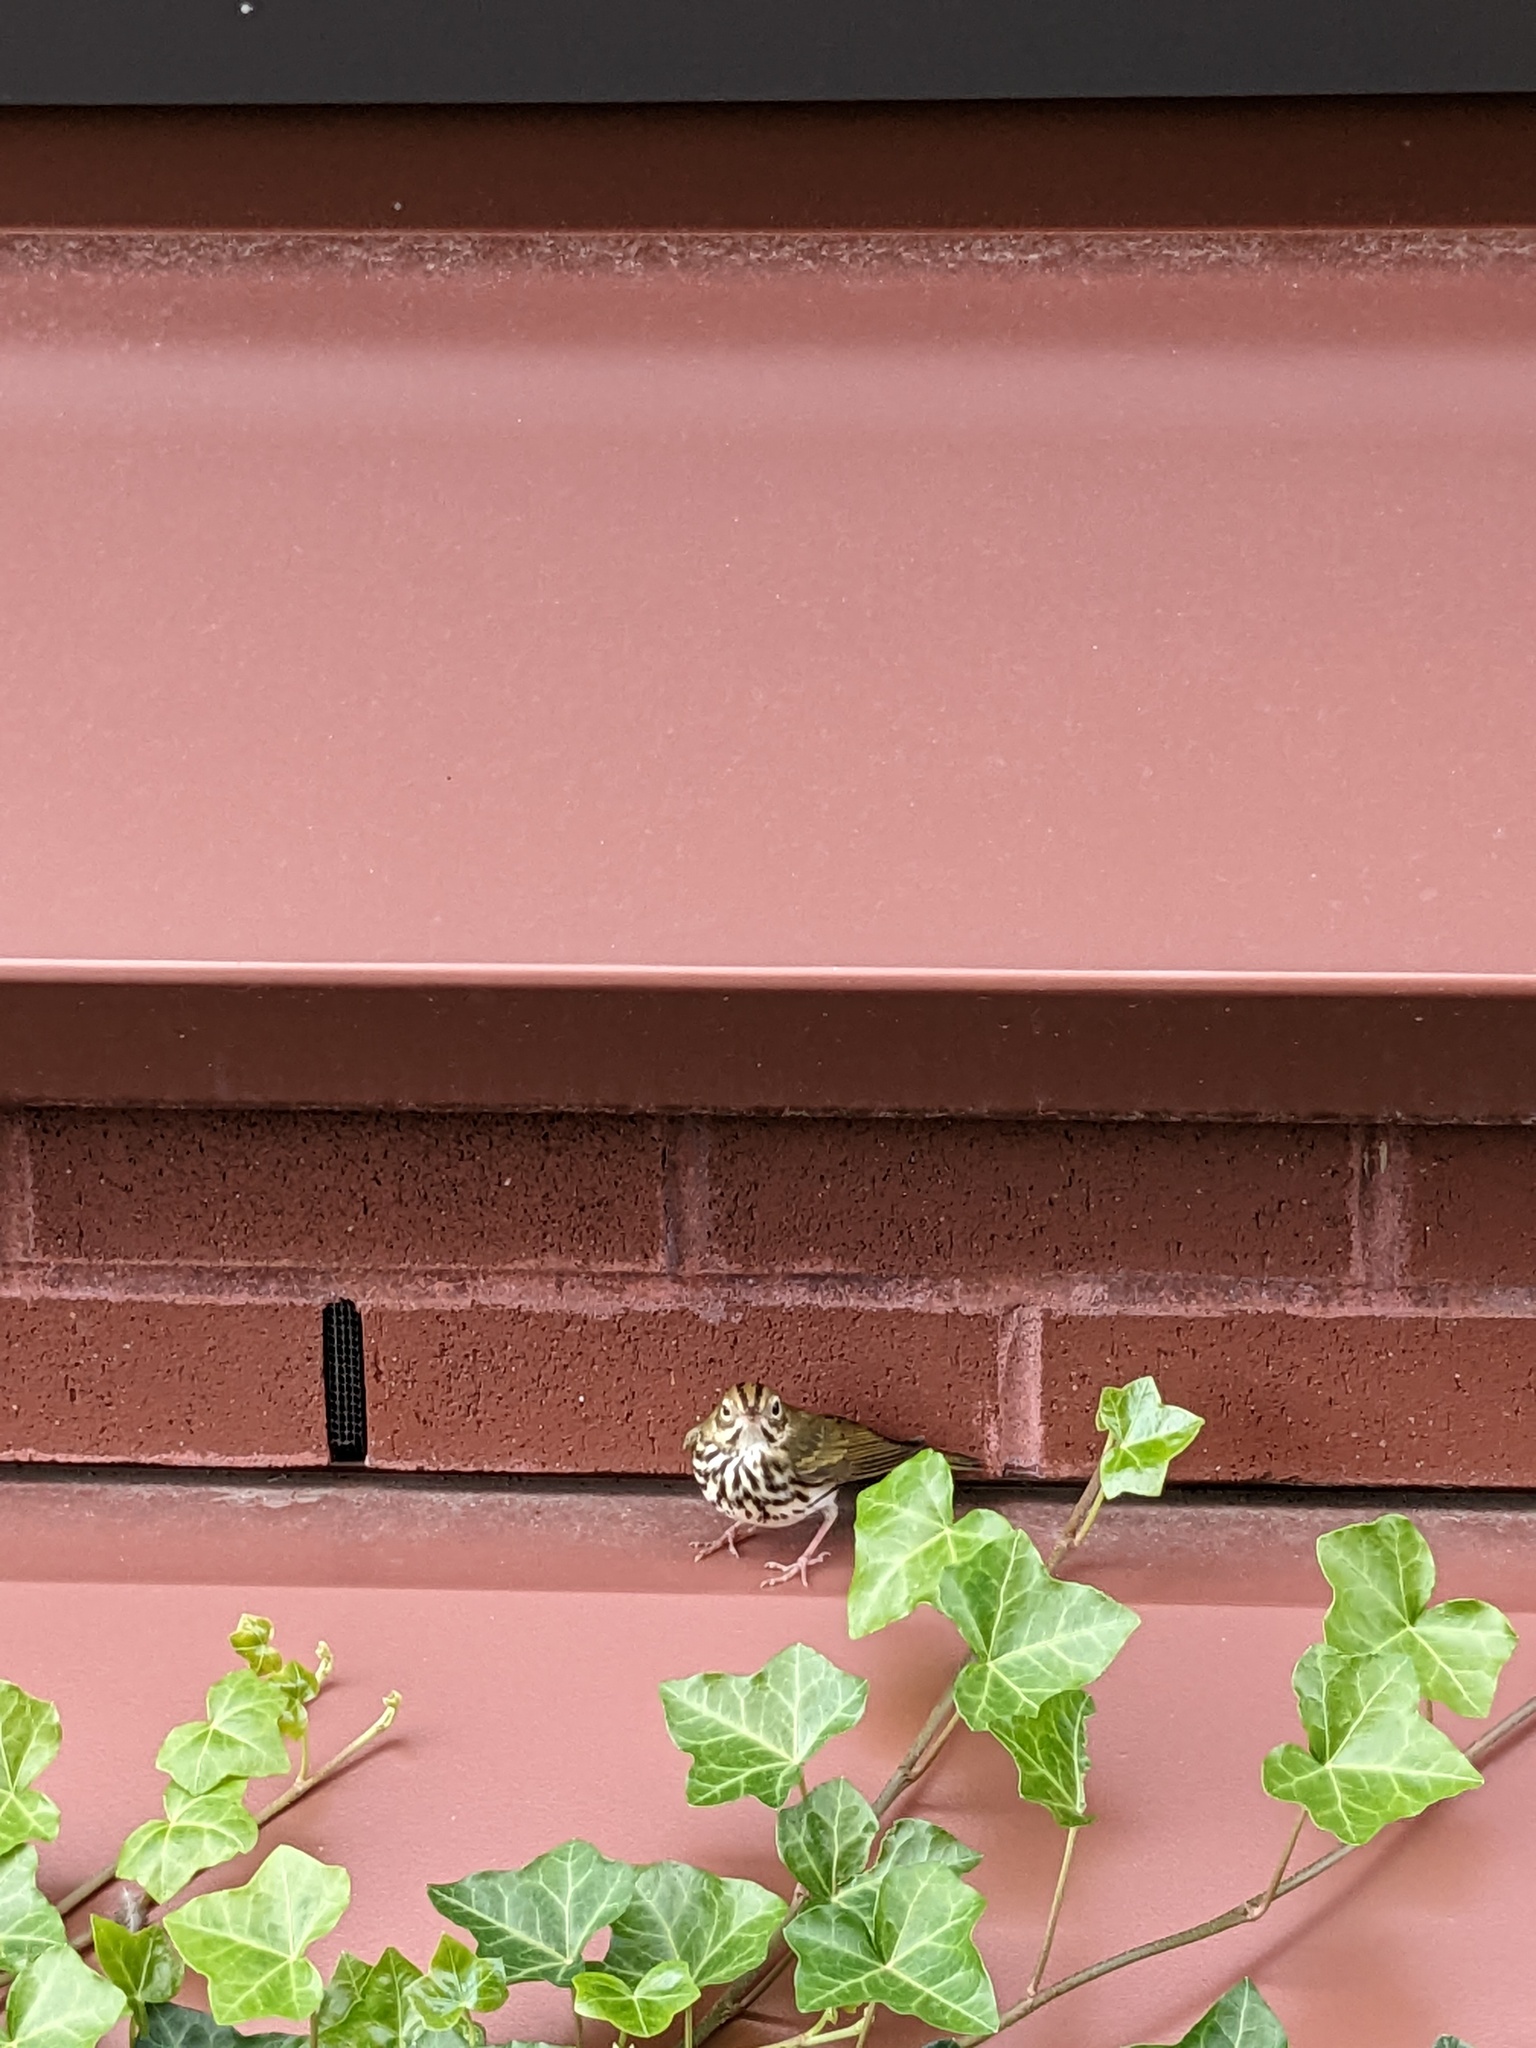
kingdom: Animalia
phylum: Chordata
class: Aves
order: Passeriformes
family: Parulidae
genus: Seiurus
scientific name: Seiurus aurocapilla
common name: Ovenbird
